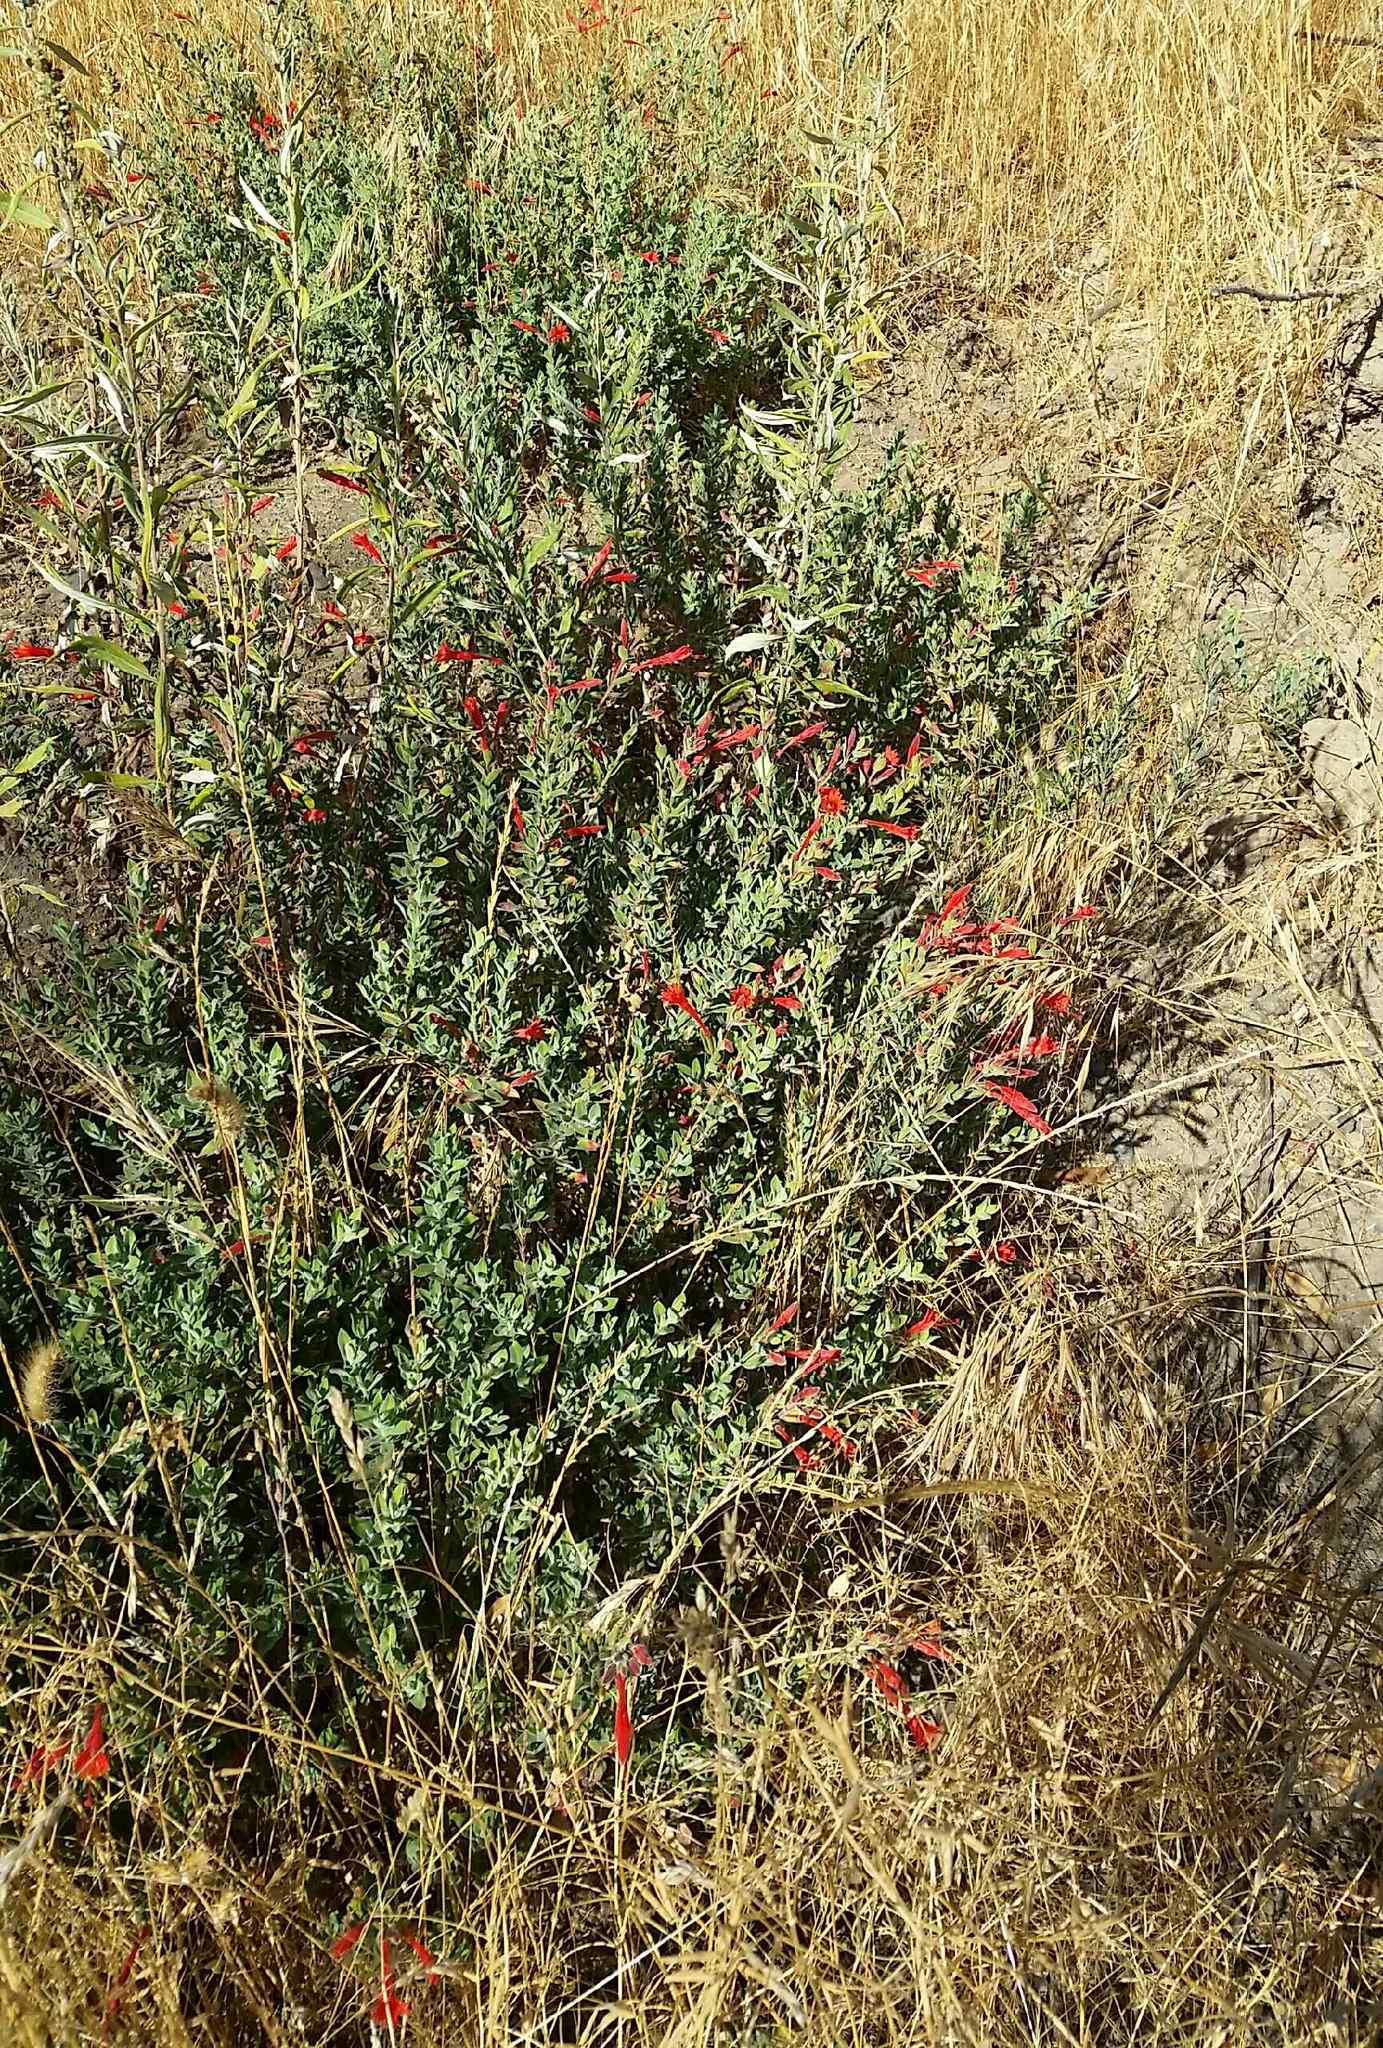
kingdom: Plantae
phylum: Tracheophyta
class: Magnoliopsida
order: Myrtales
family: Onagraceae
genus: Epilobium
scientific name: Epilobium canum
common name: California-fuchsia
